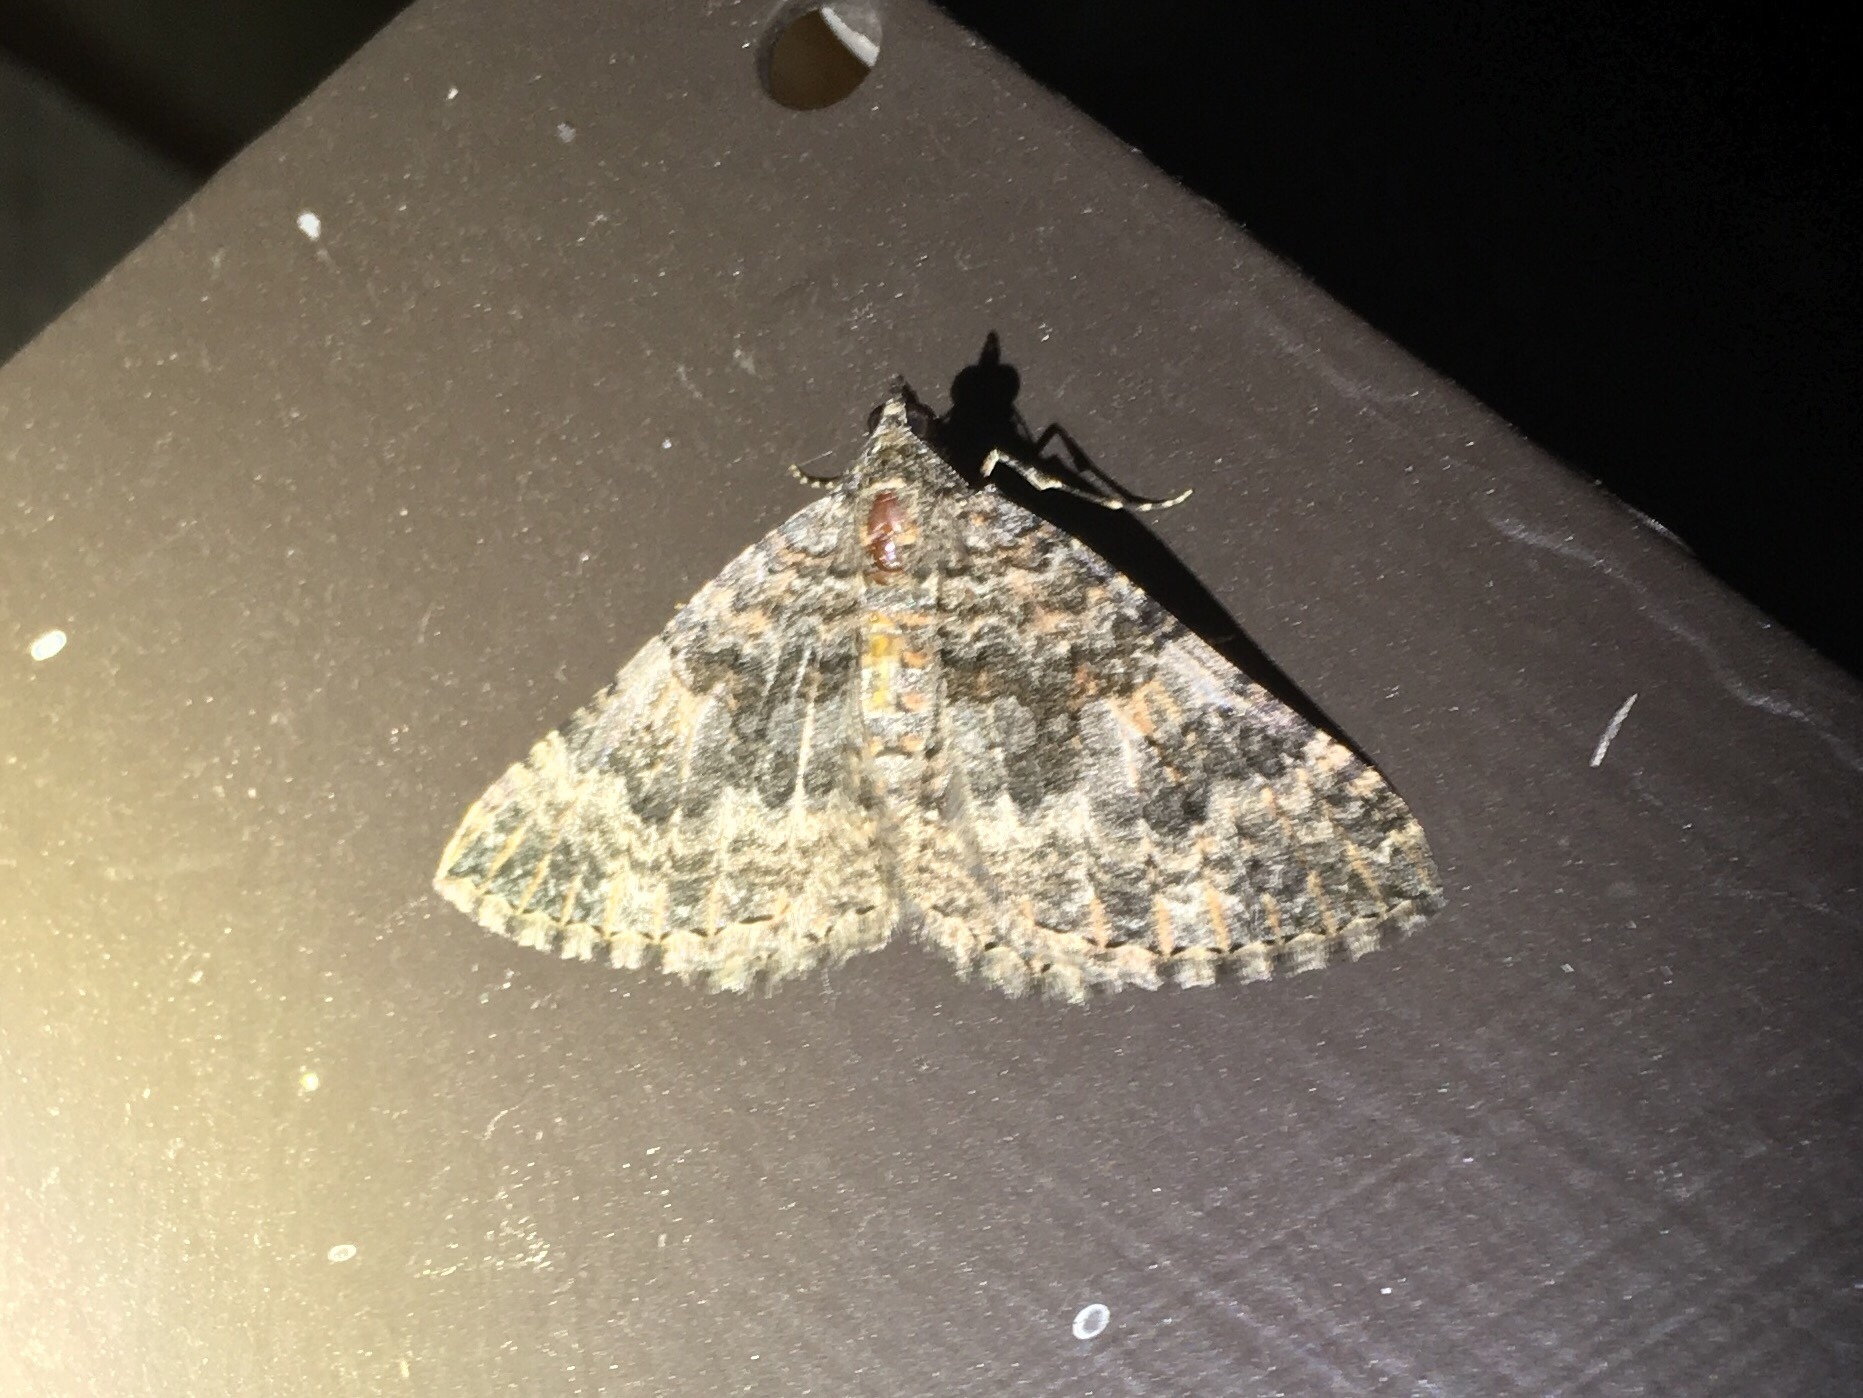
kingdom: Animalia
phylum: Arthropoda
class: Insecta
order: Lepidoptera
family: Geometridae
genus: Archirhoe
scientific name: Archirhoe neomexicana
